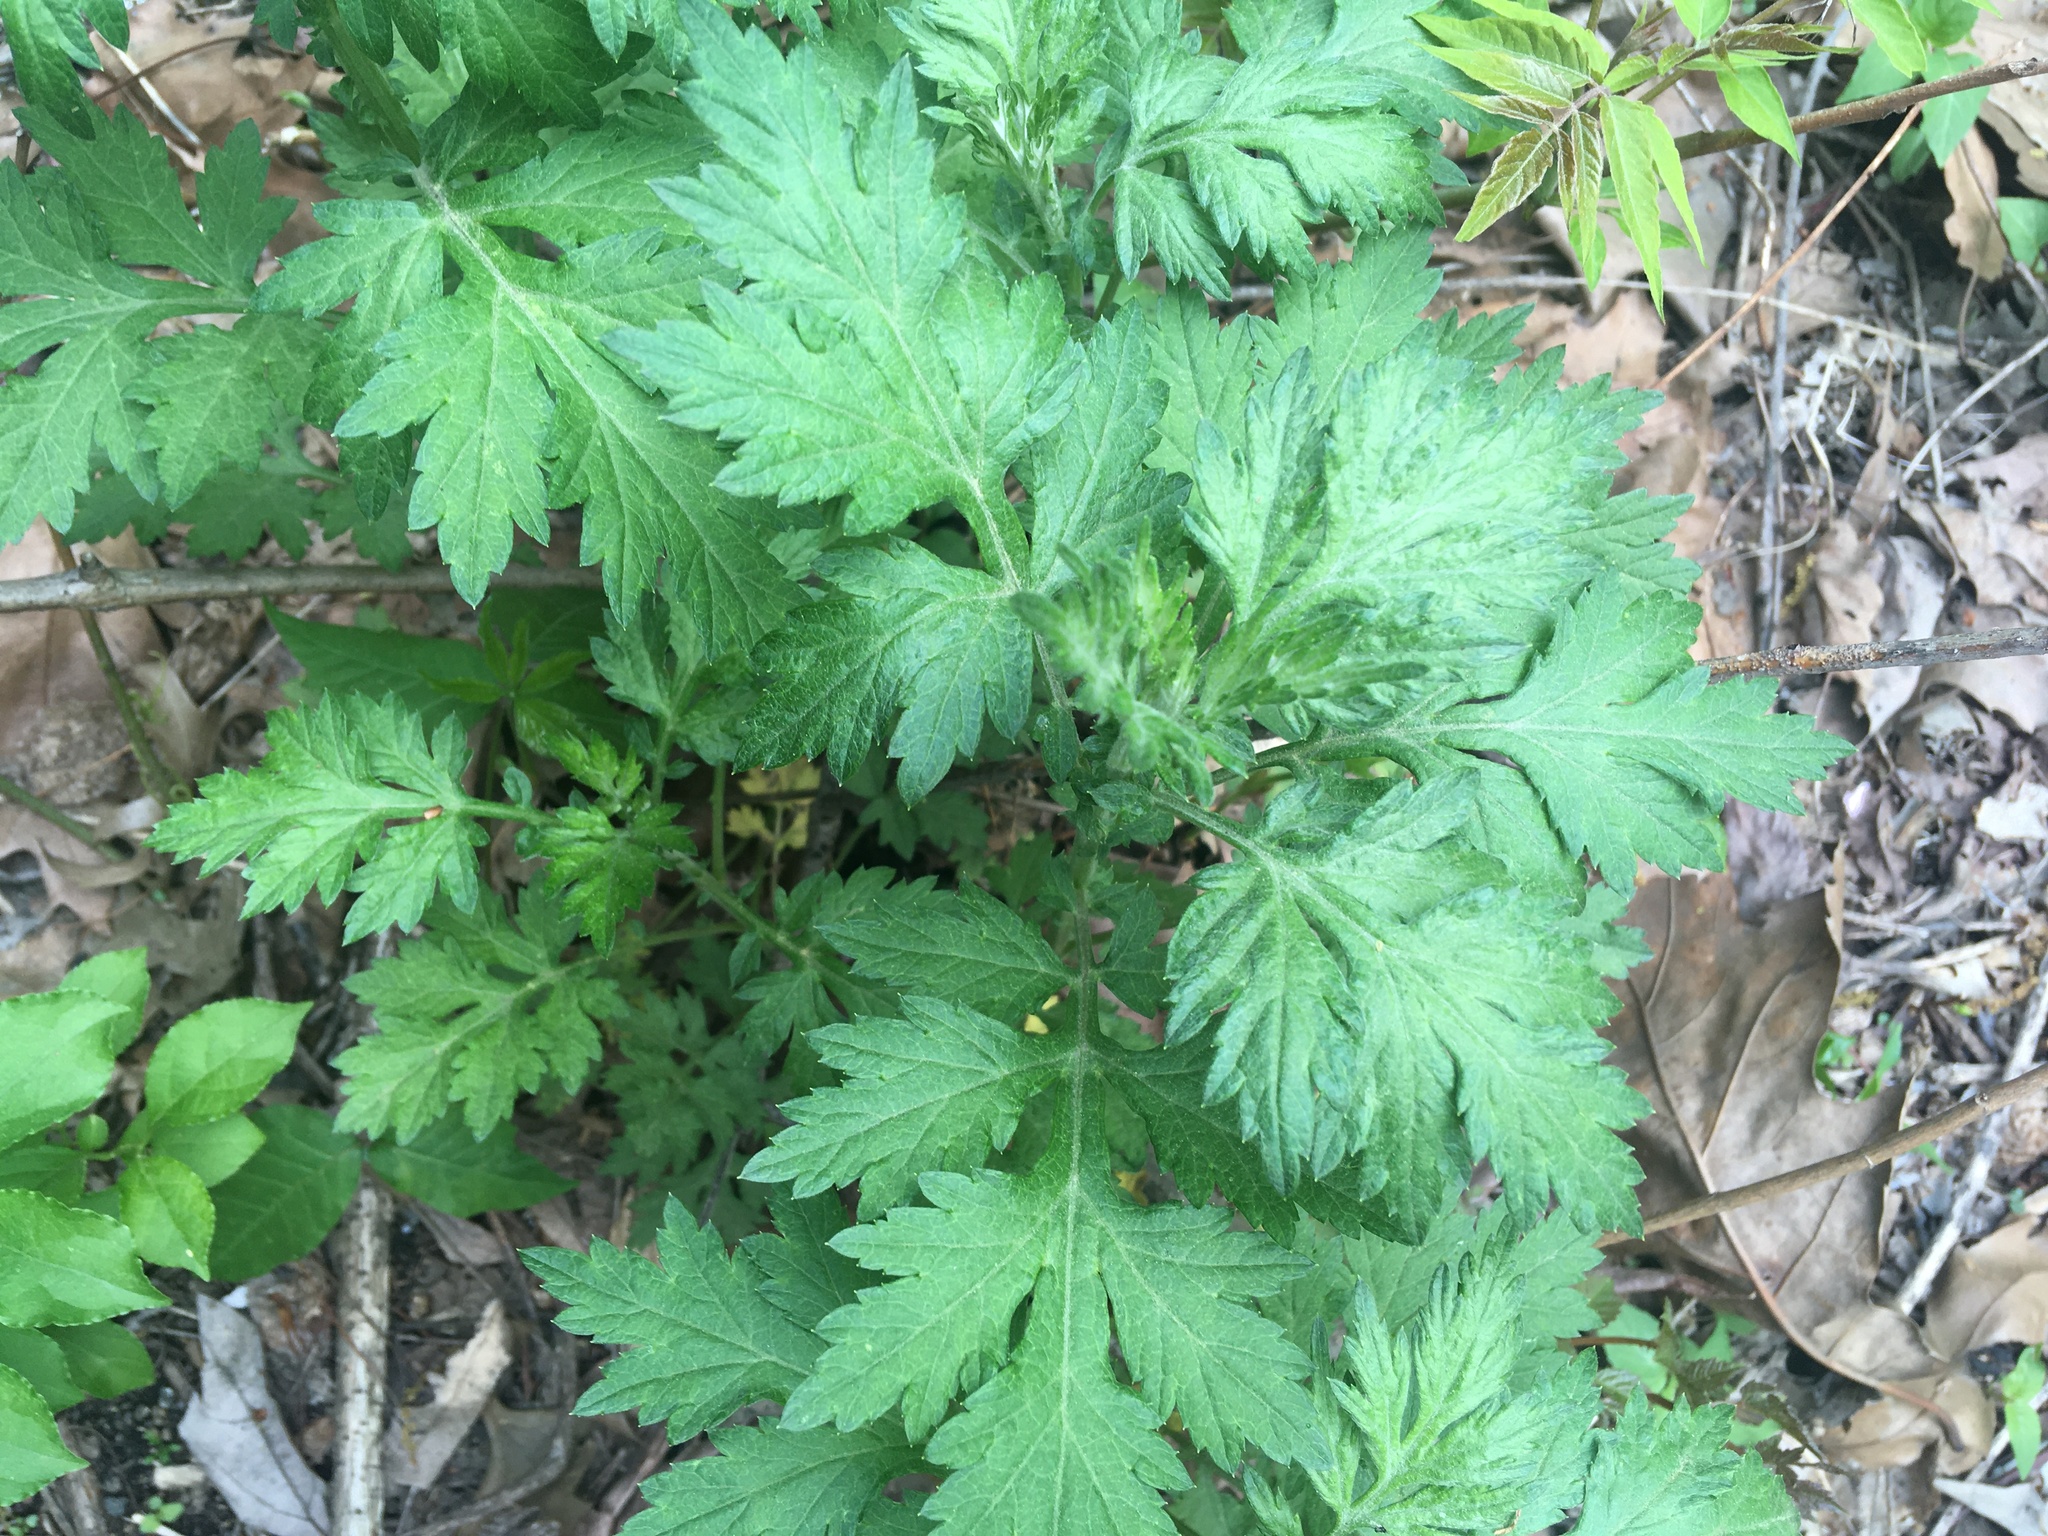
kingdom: Plantae
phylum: Tracheophyta
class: Magnoliopsida
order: Asterales
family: Asteraceae
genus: Artemisia
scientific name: Artemisia vulgaris
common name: Mugwort
